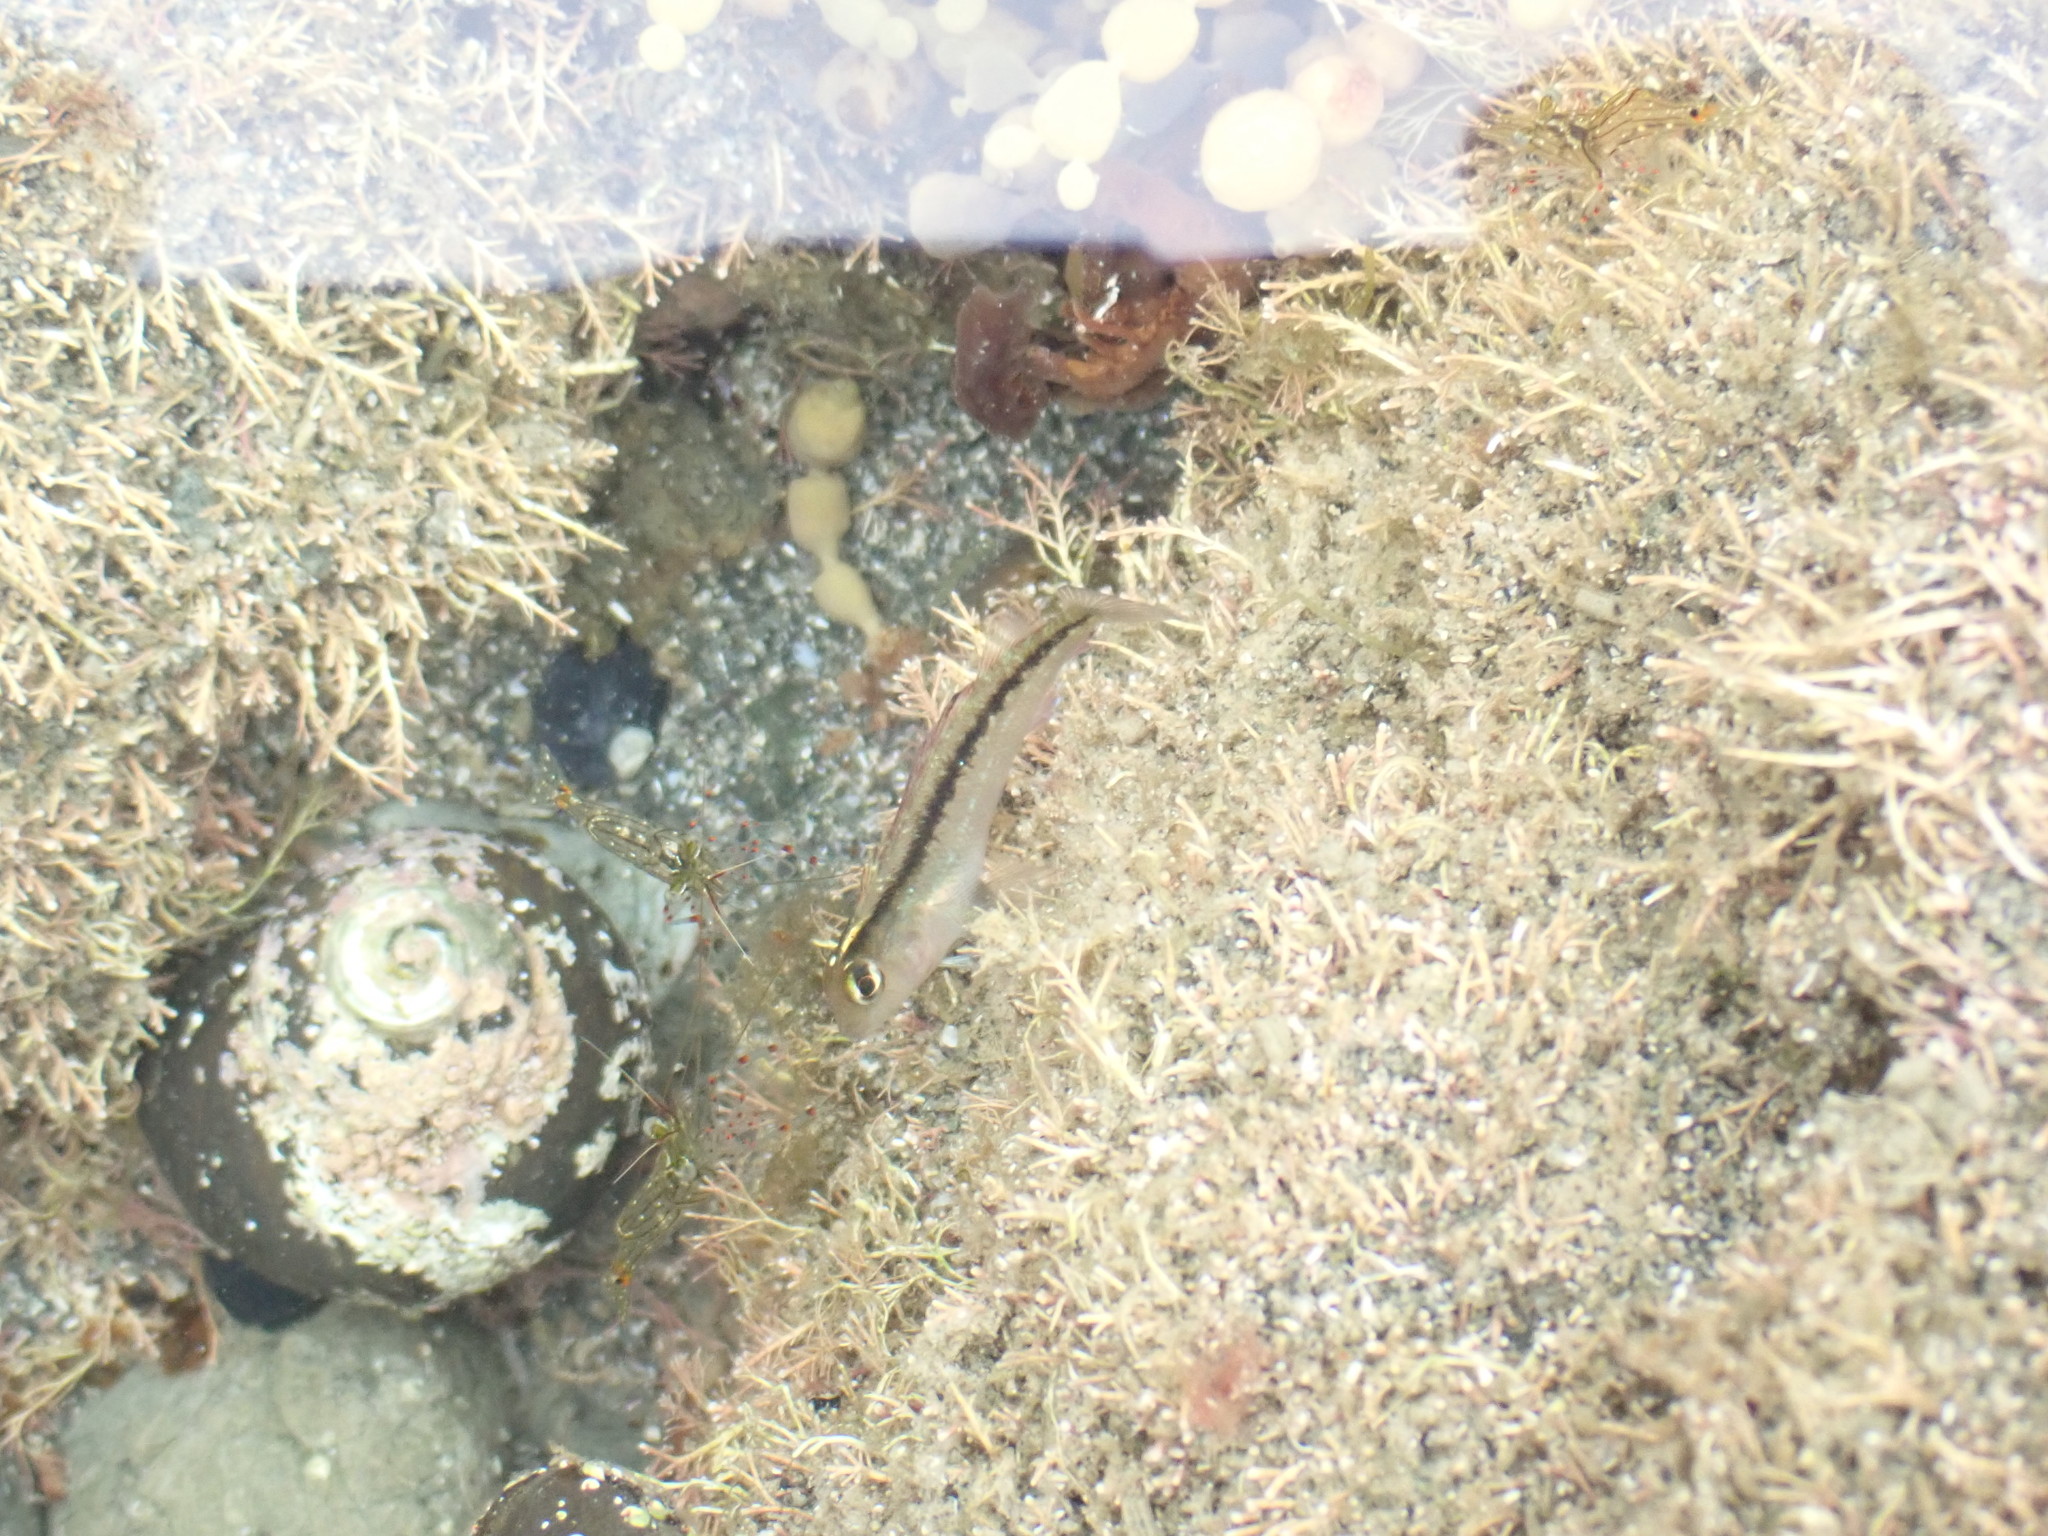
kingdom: Animalia
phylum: Chordata
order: Perciformes
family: Tripterygiidae
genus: Forsterygion
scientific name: Forsterygion lapillum
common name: Common triplefin
